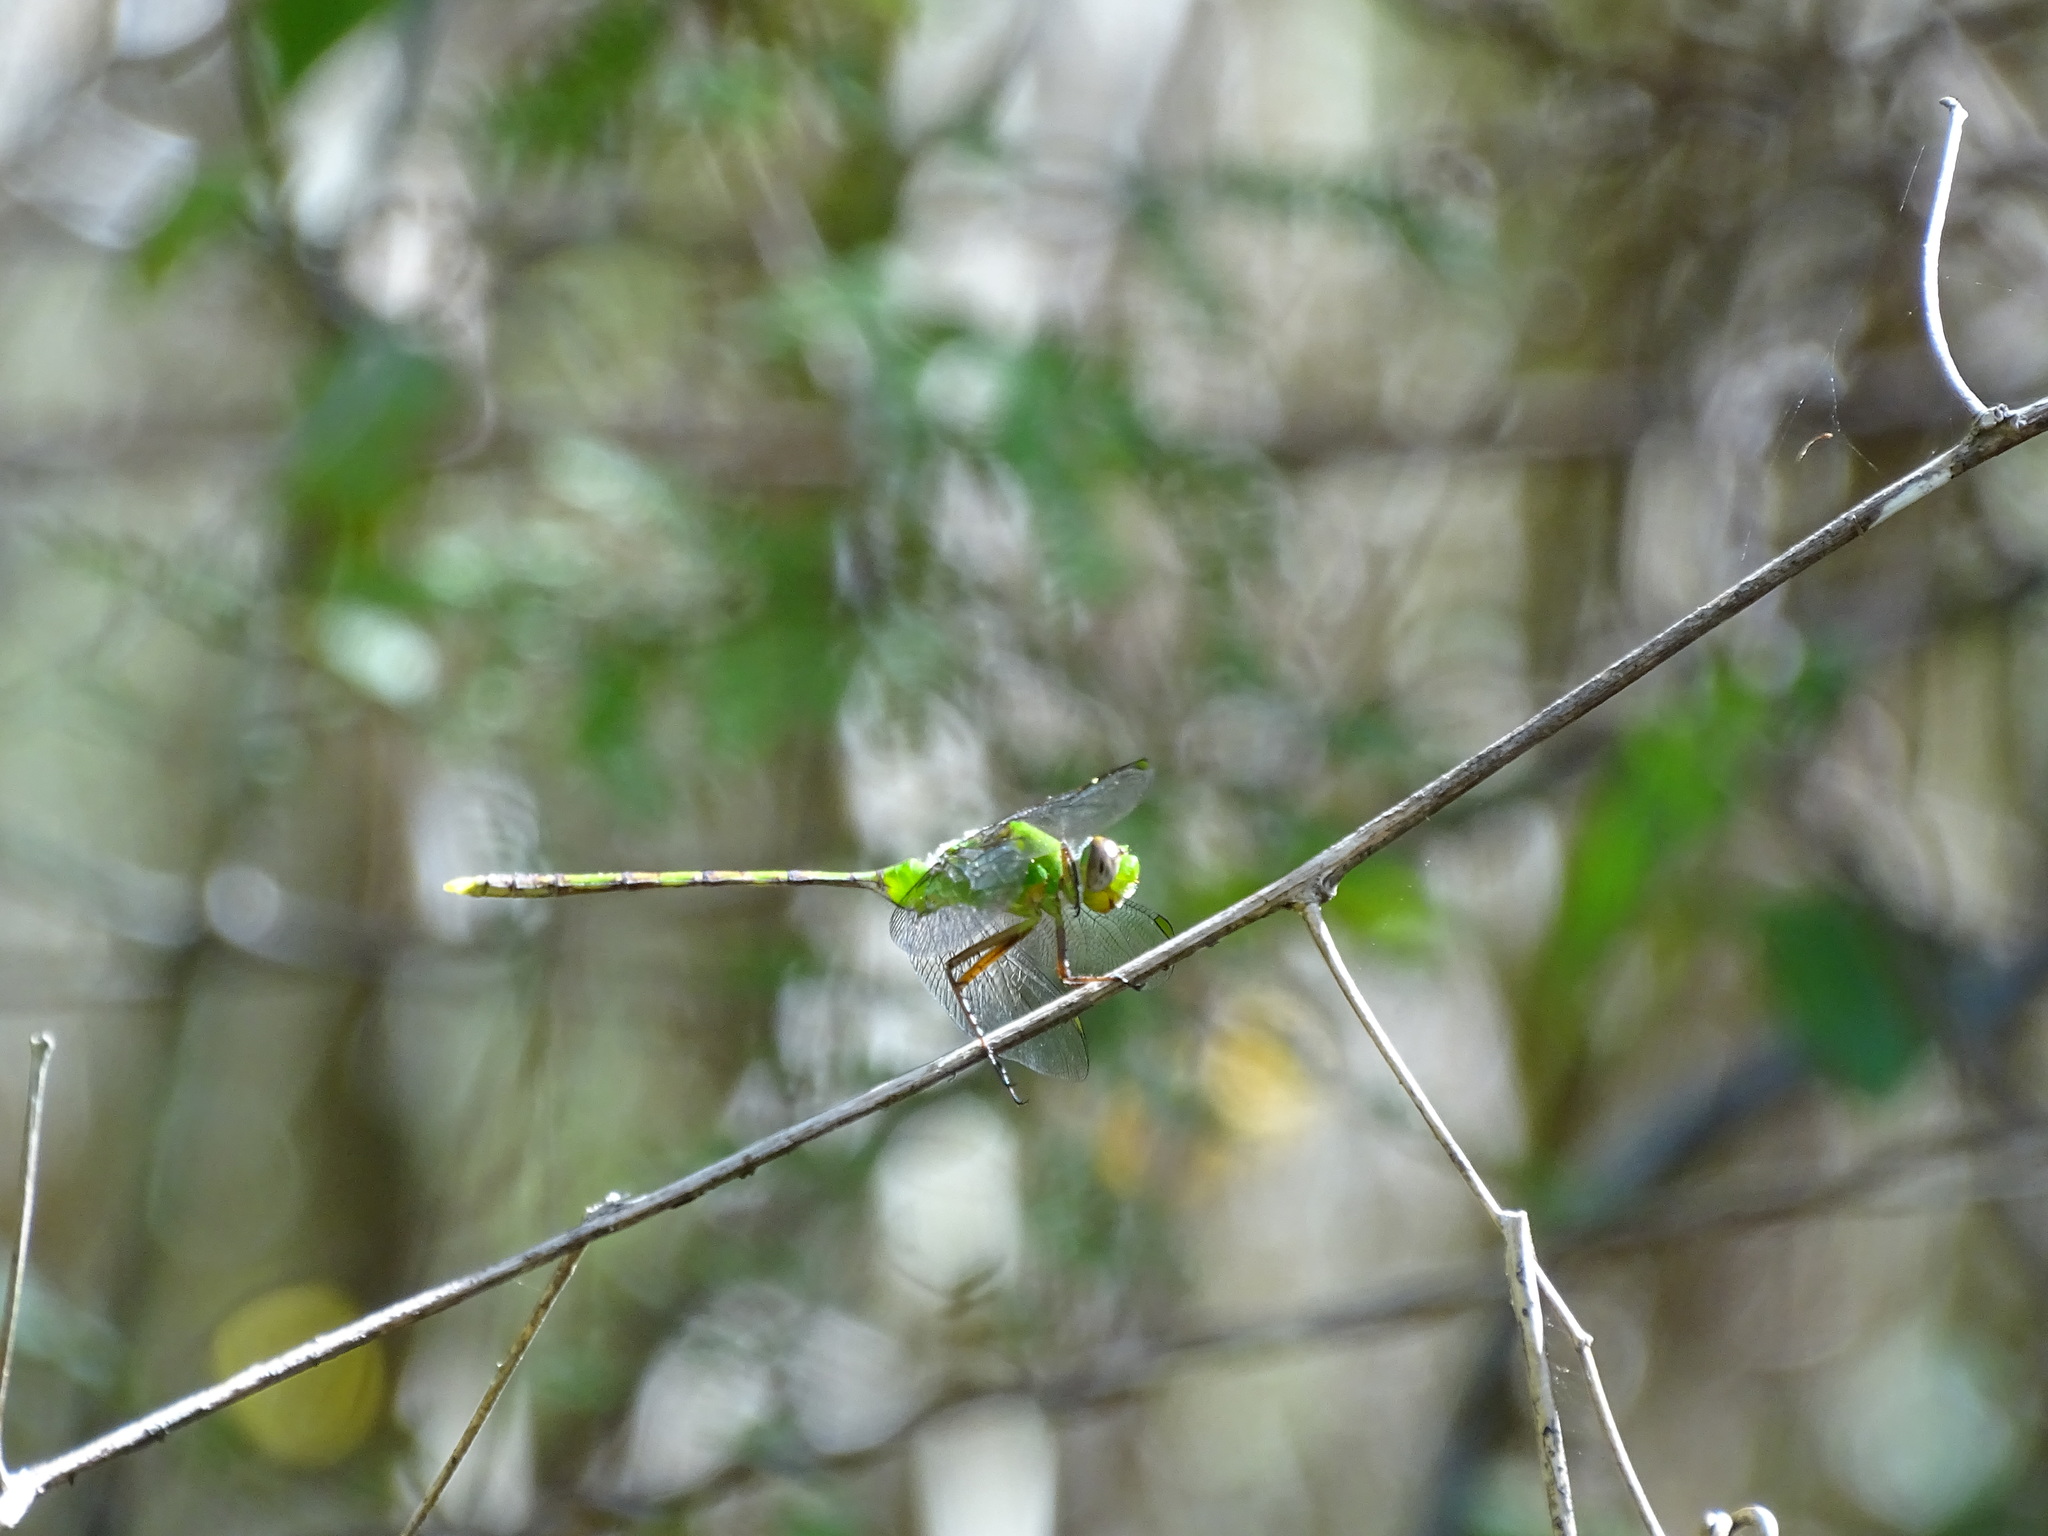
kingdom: Animalia
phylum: Arthropoda
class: Insecta
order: Odonata
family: Libellulidae
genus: Erythemis
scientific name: Erythemis vesiculosa
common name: Great pondhawk
